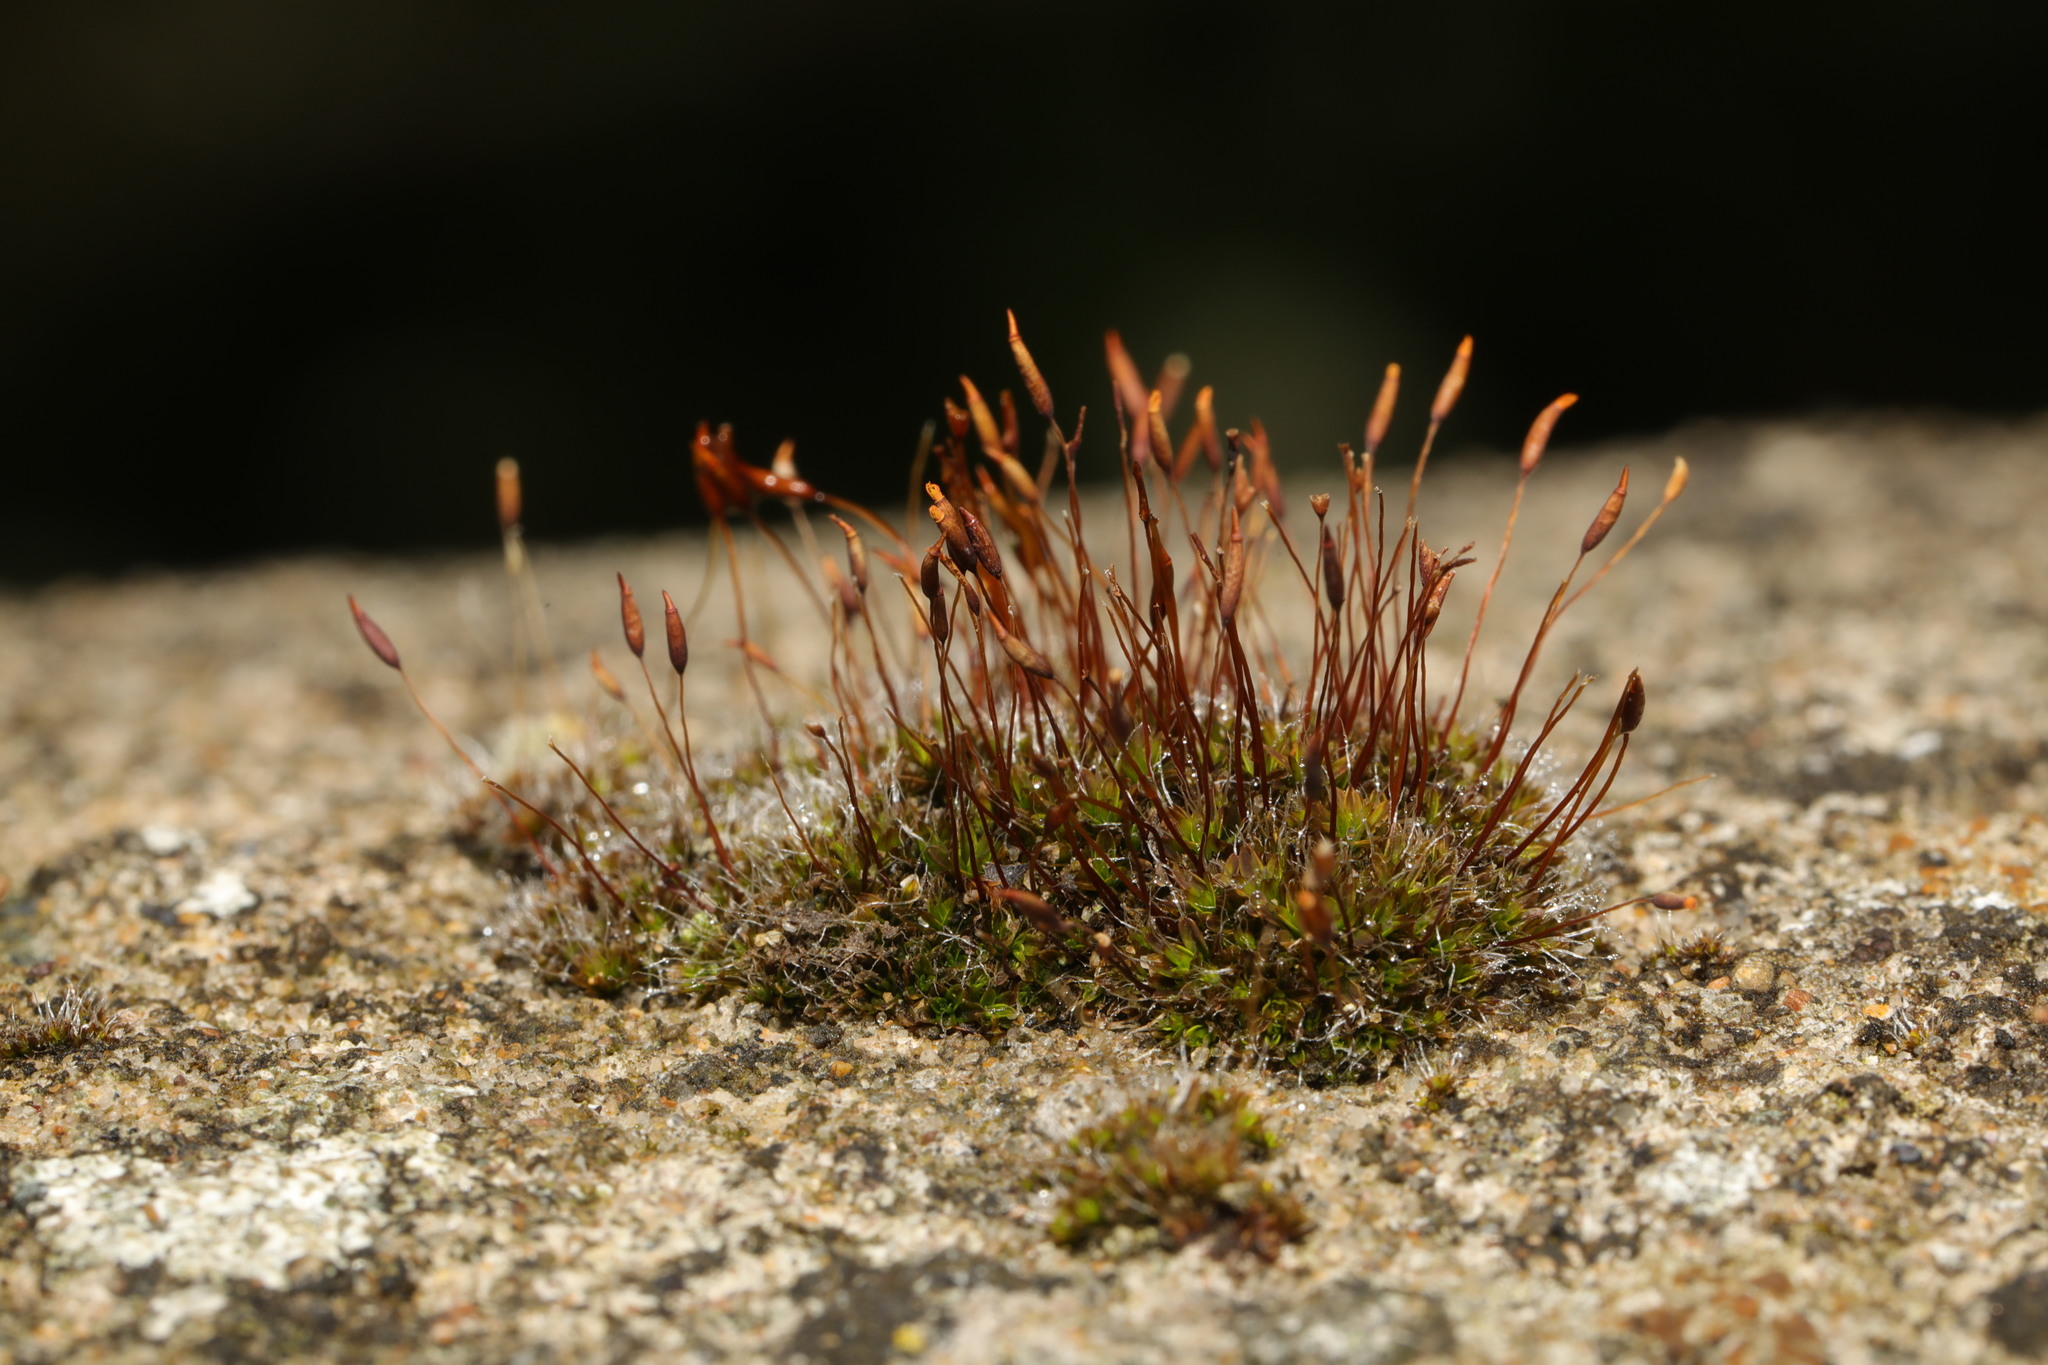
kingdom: Plantae
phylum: Bryophyta
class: Bryopsida
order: Pottiales
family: Pottiaceae
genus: Tortula
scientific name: Tortula muralis
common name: Wall screw-moss
